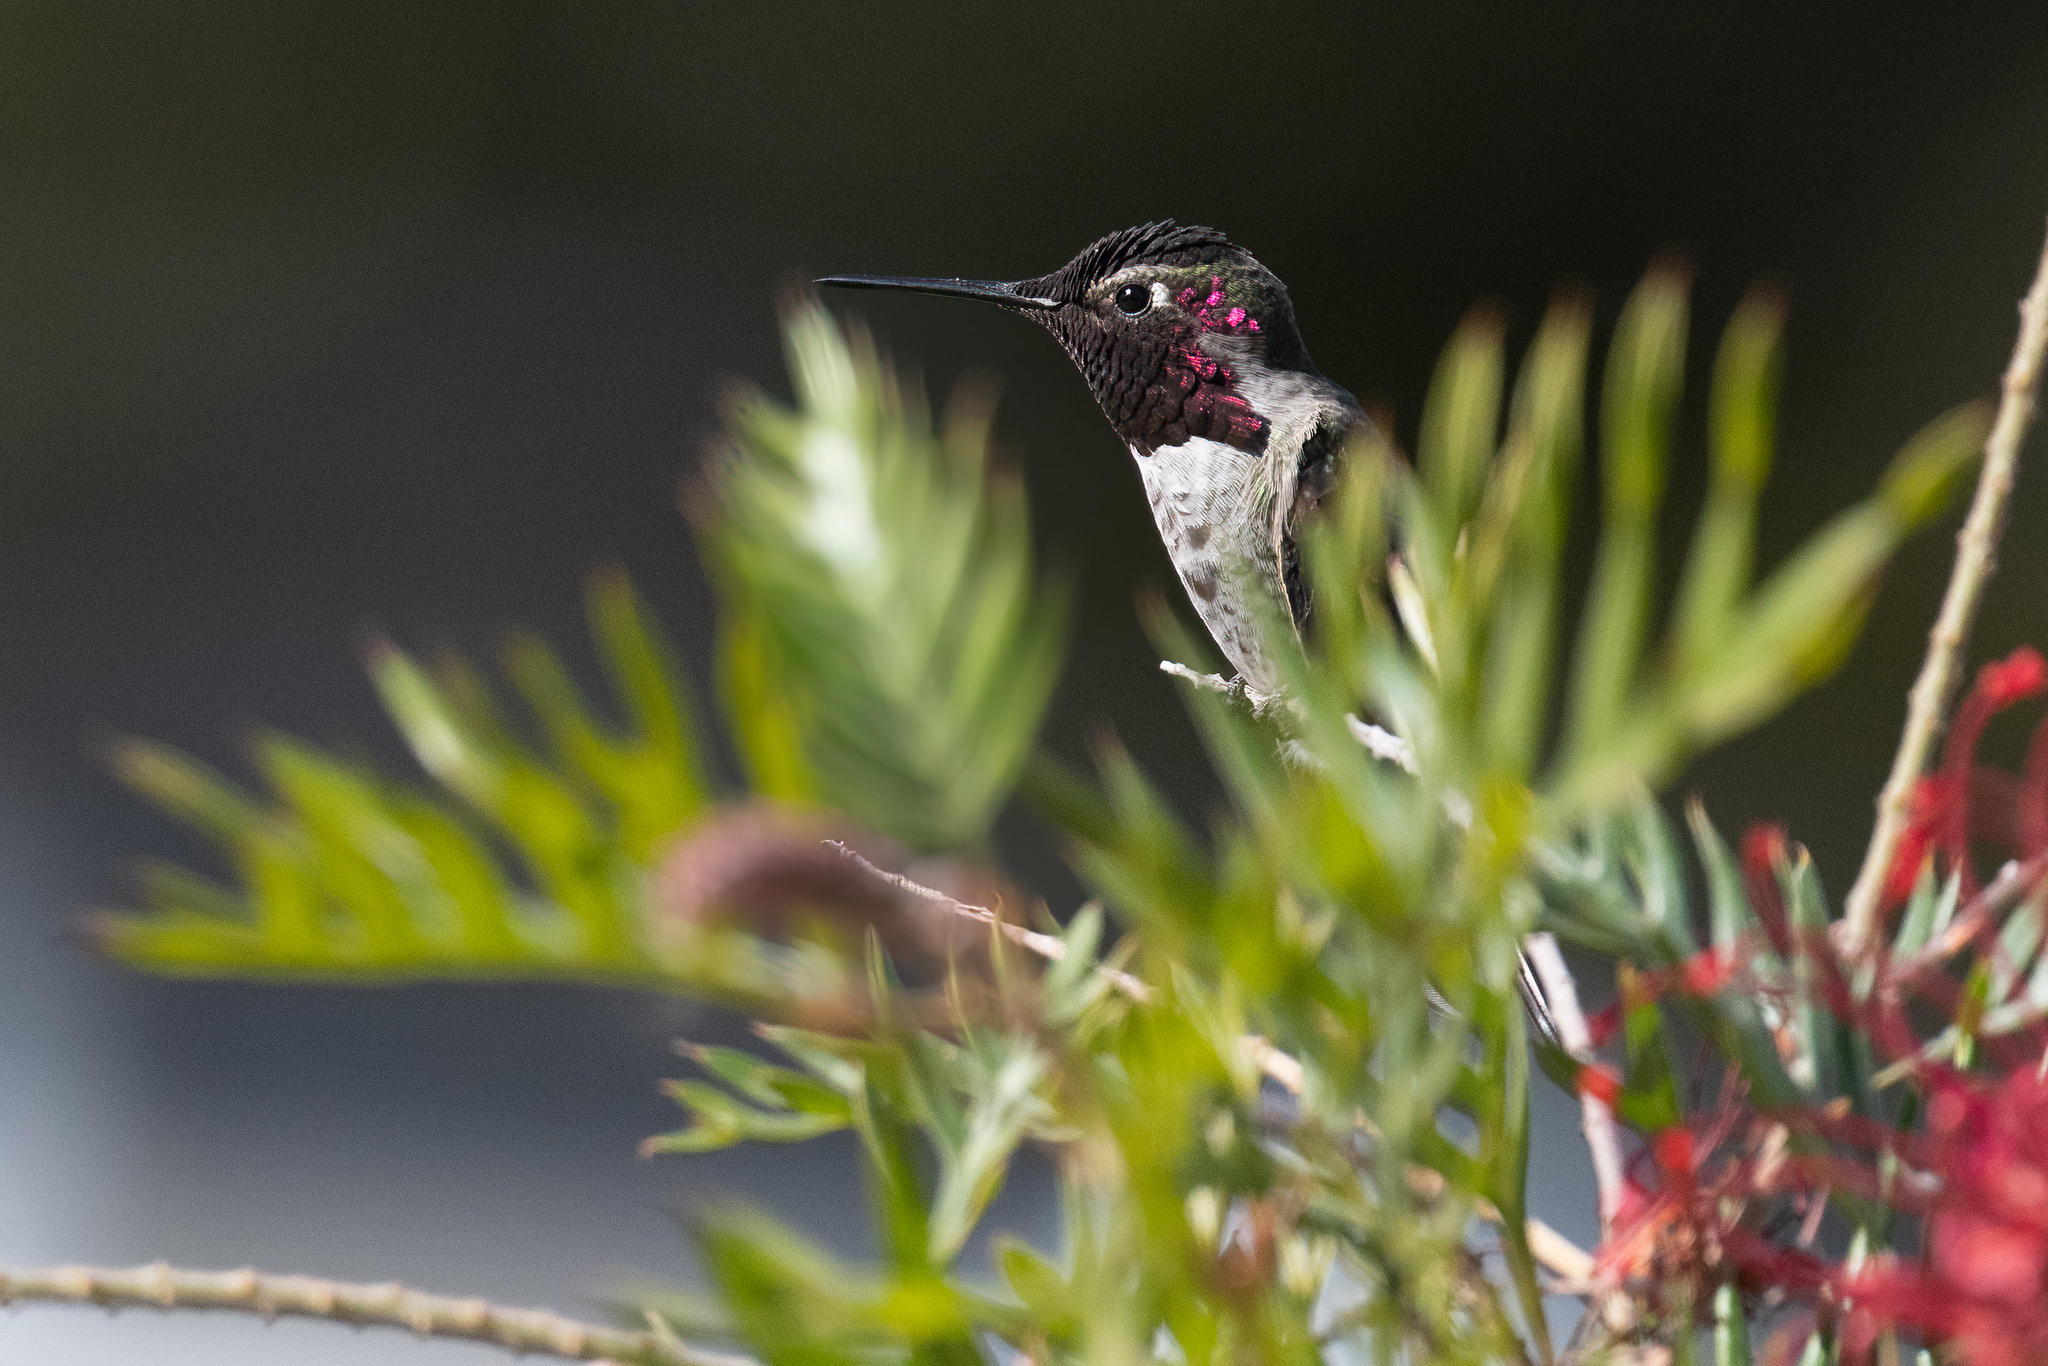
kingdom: Animalia
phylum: Chordata
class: Aves
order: Apodiformes
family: Trochilidae
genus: Calypte
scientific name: Calypte anna
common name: Anna's hummingbird
